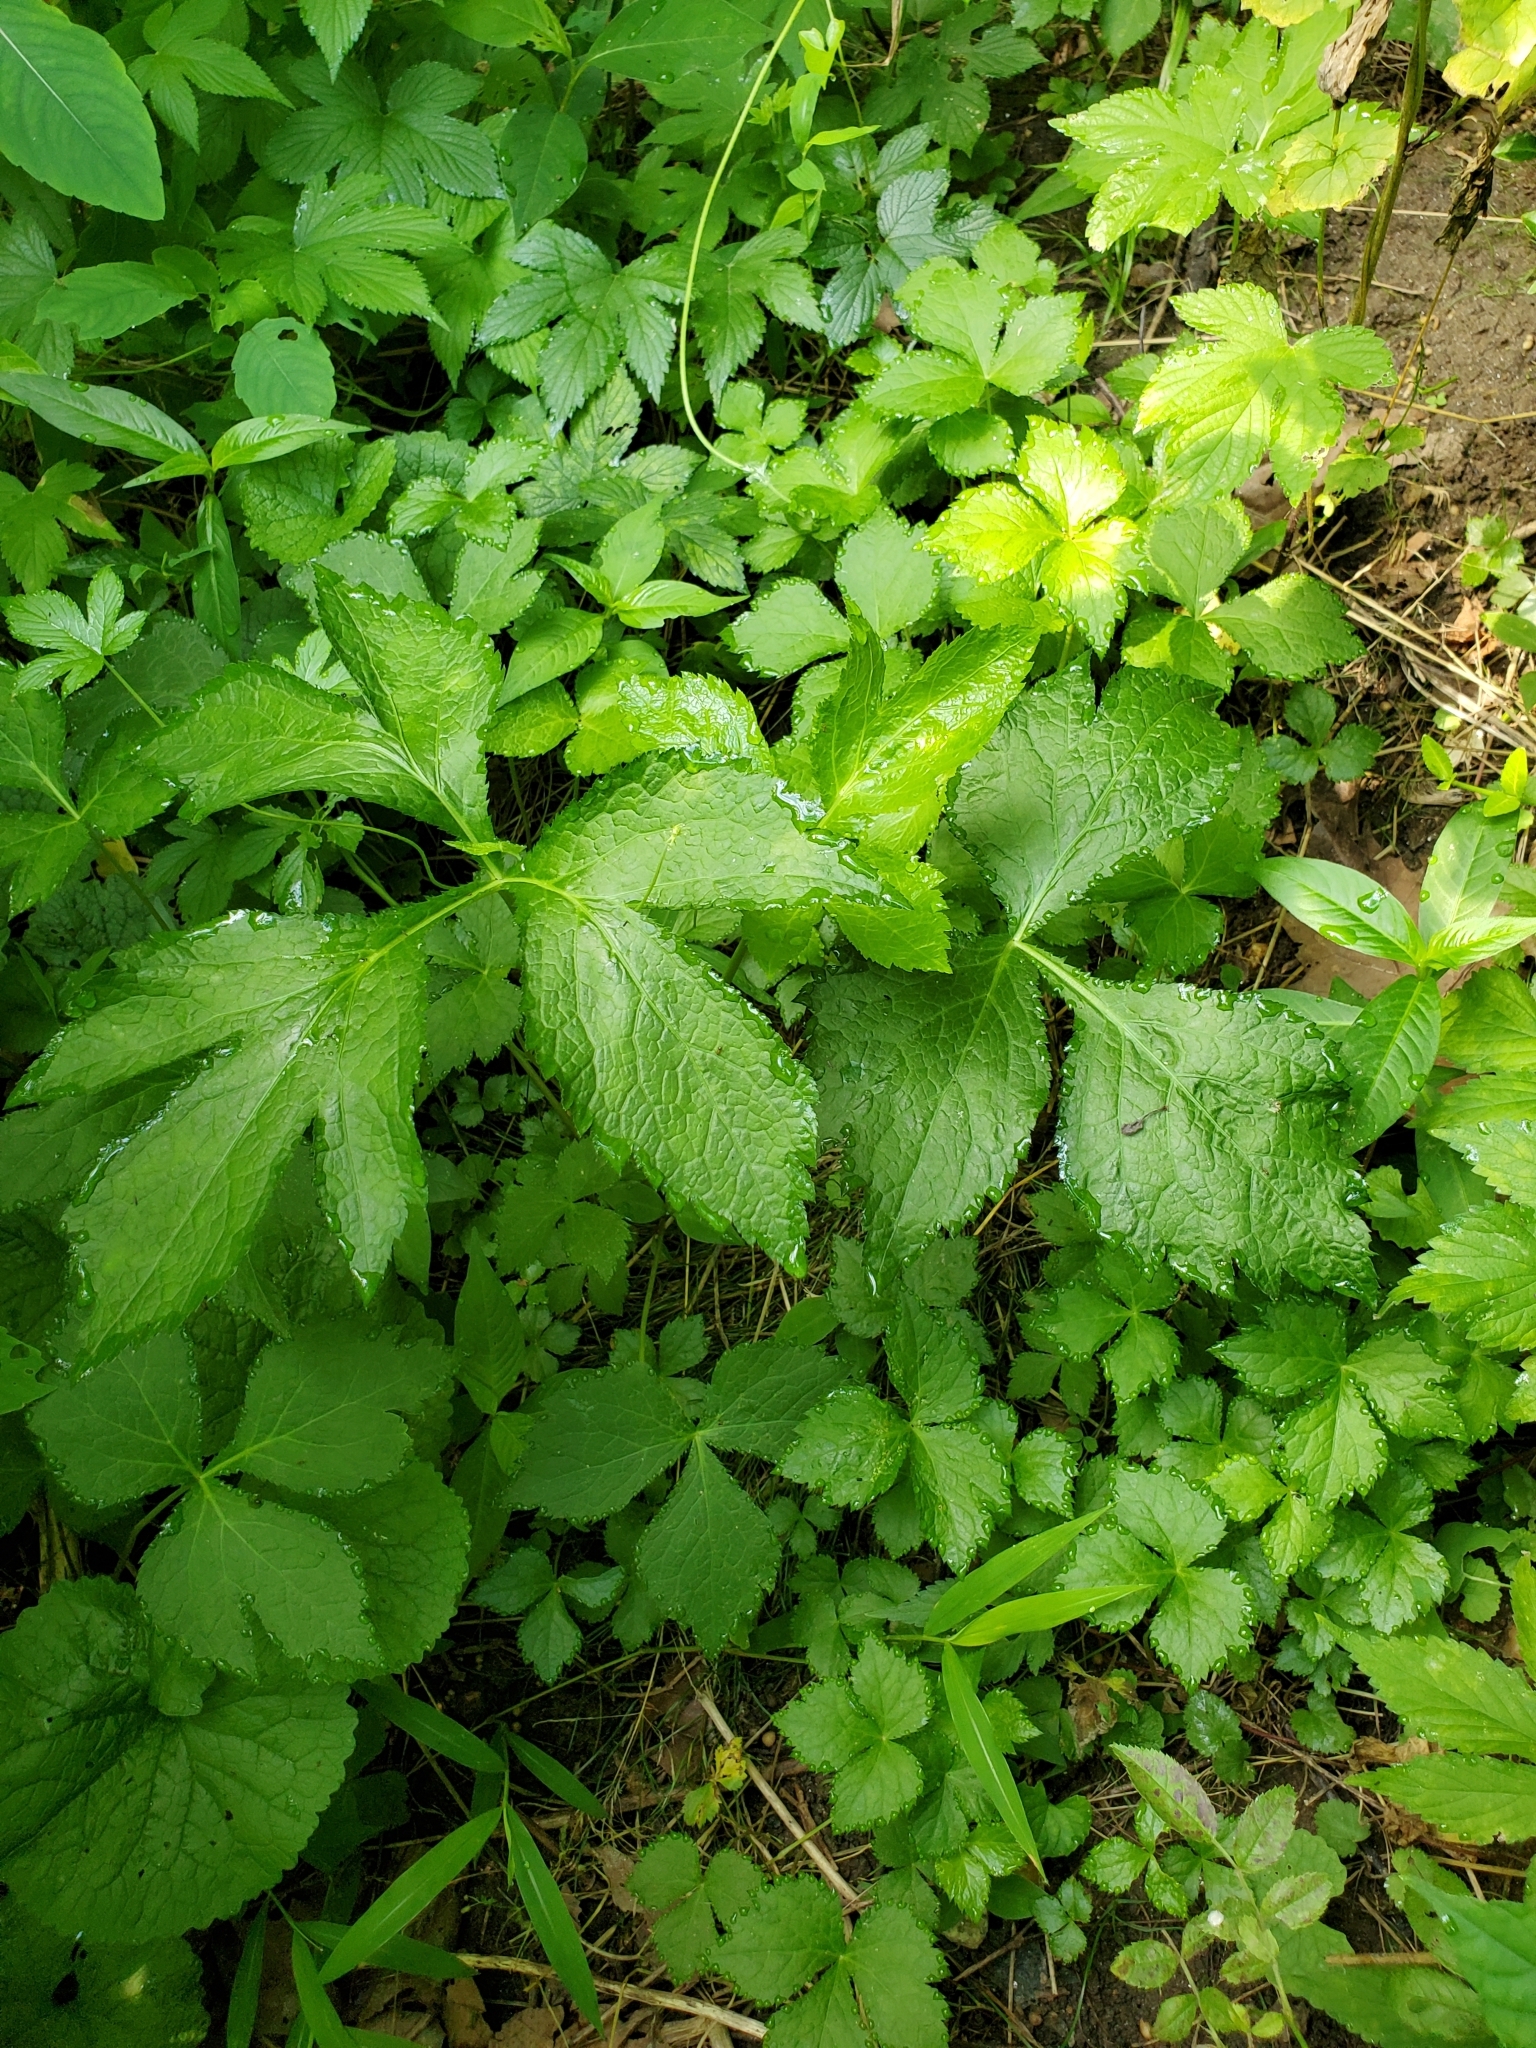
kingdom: Plantae
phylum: Tracheophyta
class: Magnoliopsida
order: Apiales
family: Apiaceae
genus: Cryptotaenia
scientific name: Cryptotaenia canadensis
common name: Honewort
